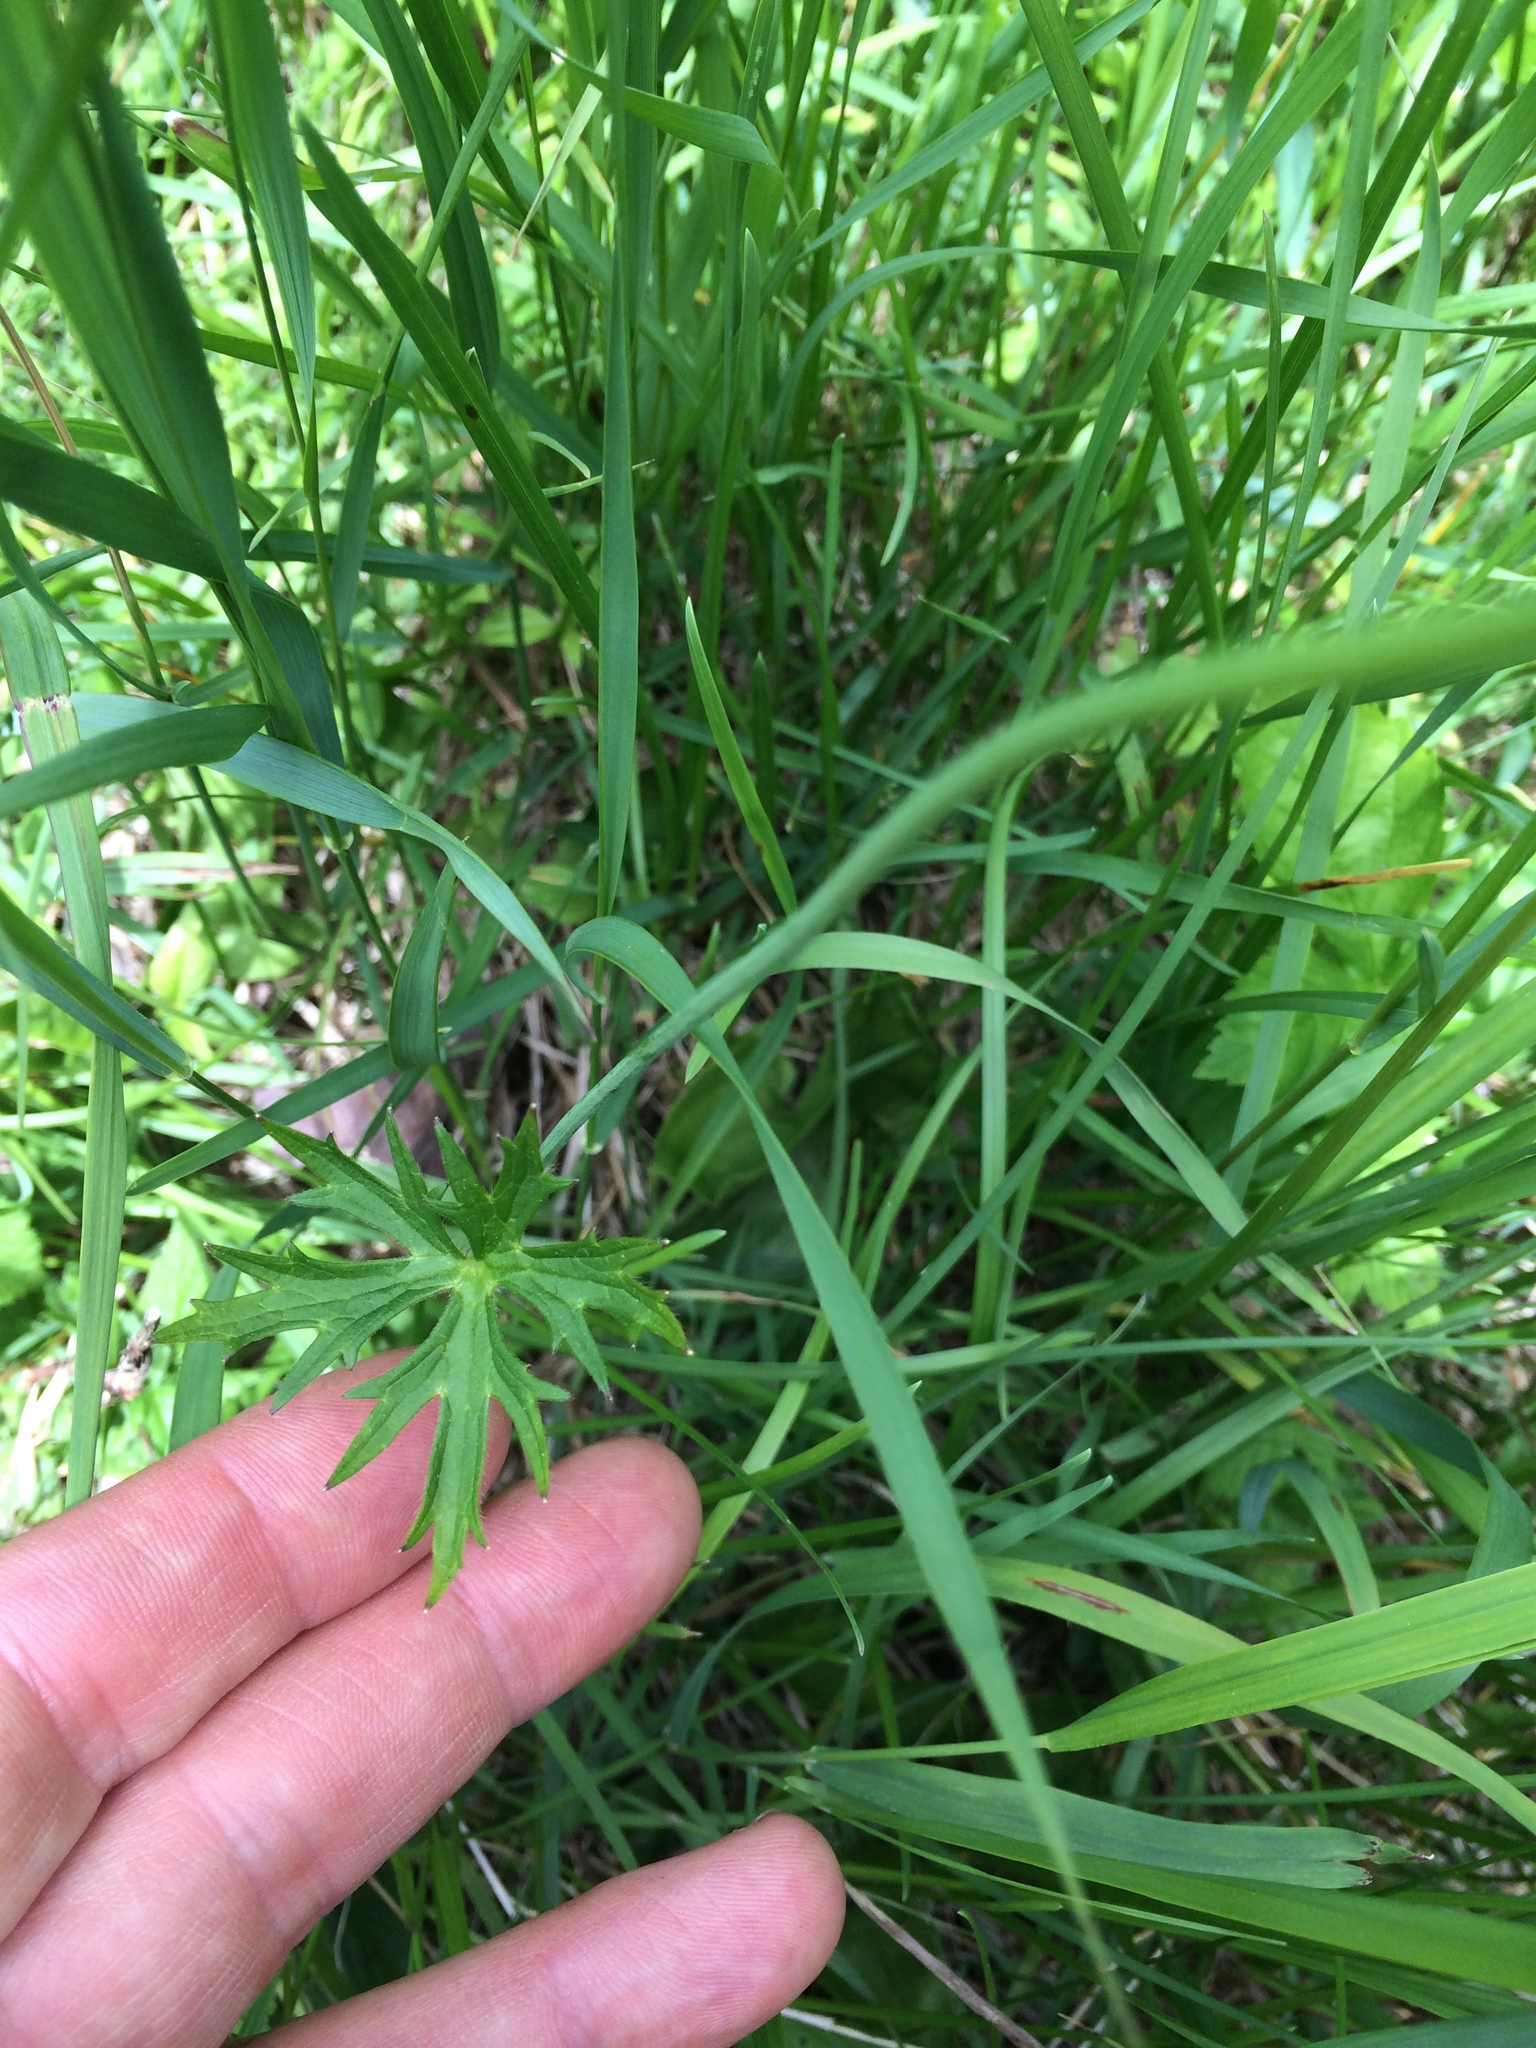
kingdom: Plantae
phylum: Tracheophyta
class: Magnoliopsida
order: Ranunculales
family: Ranunculaceae
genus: Ranunculus
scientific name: Ranunculus acris
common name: Meadow buttercup
